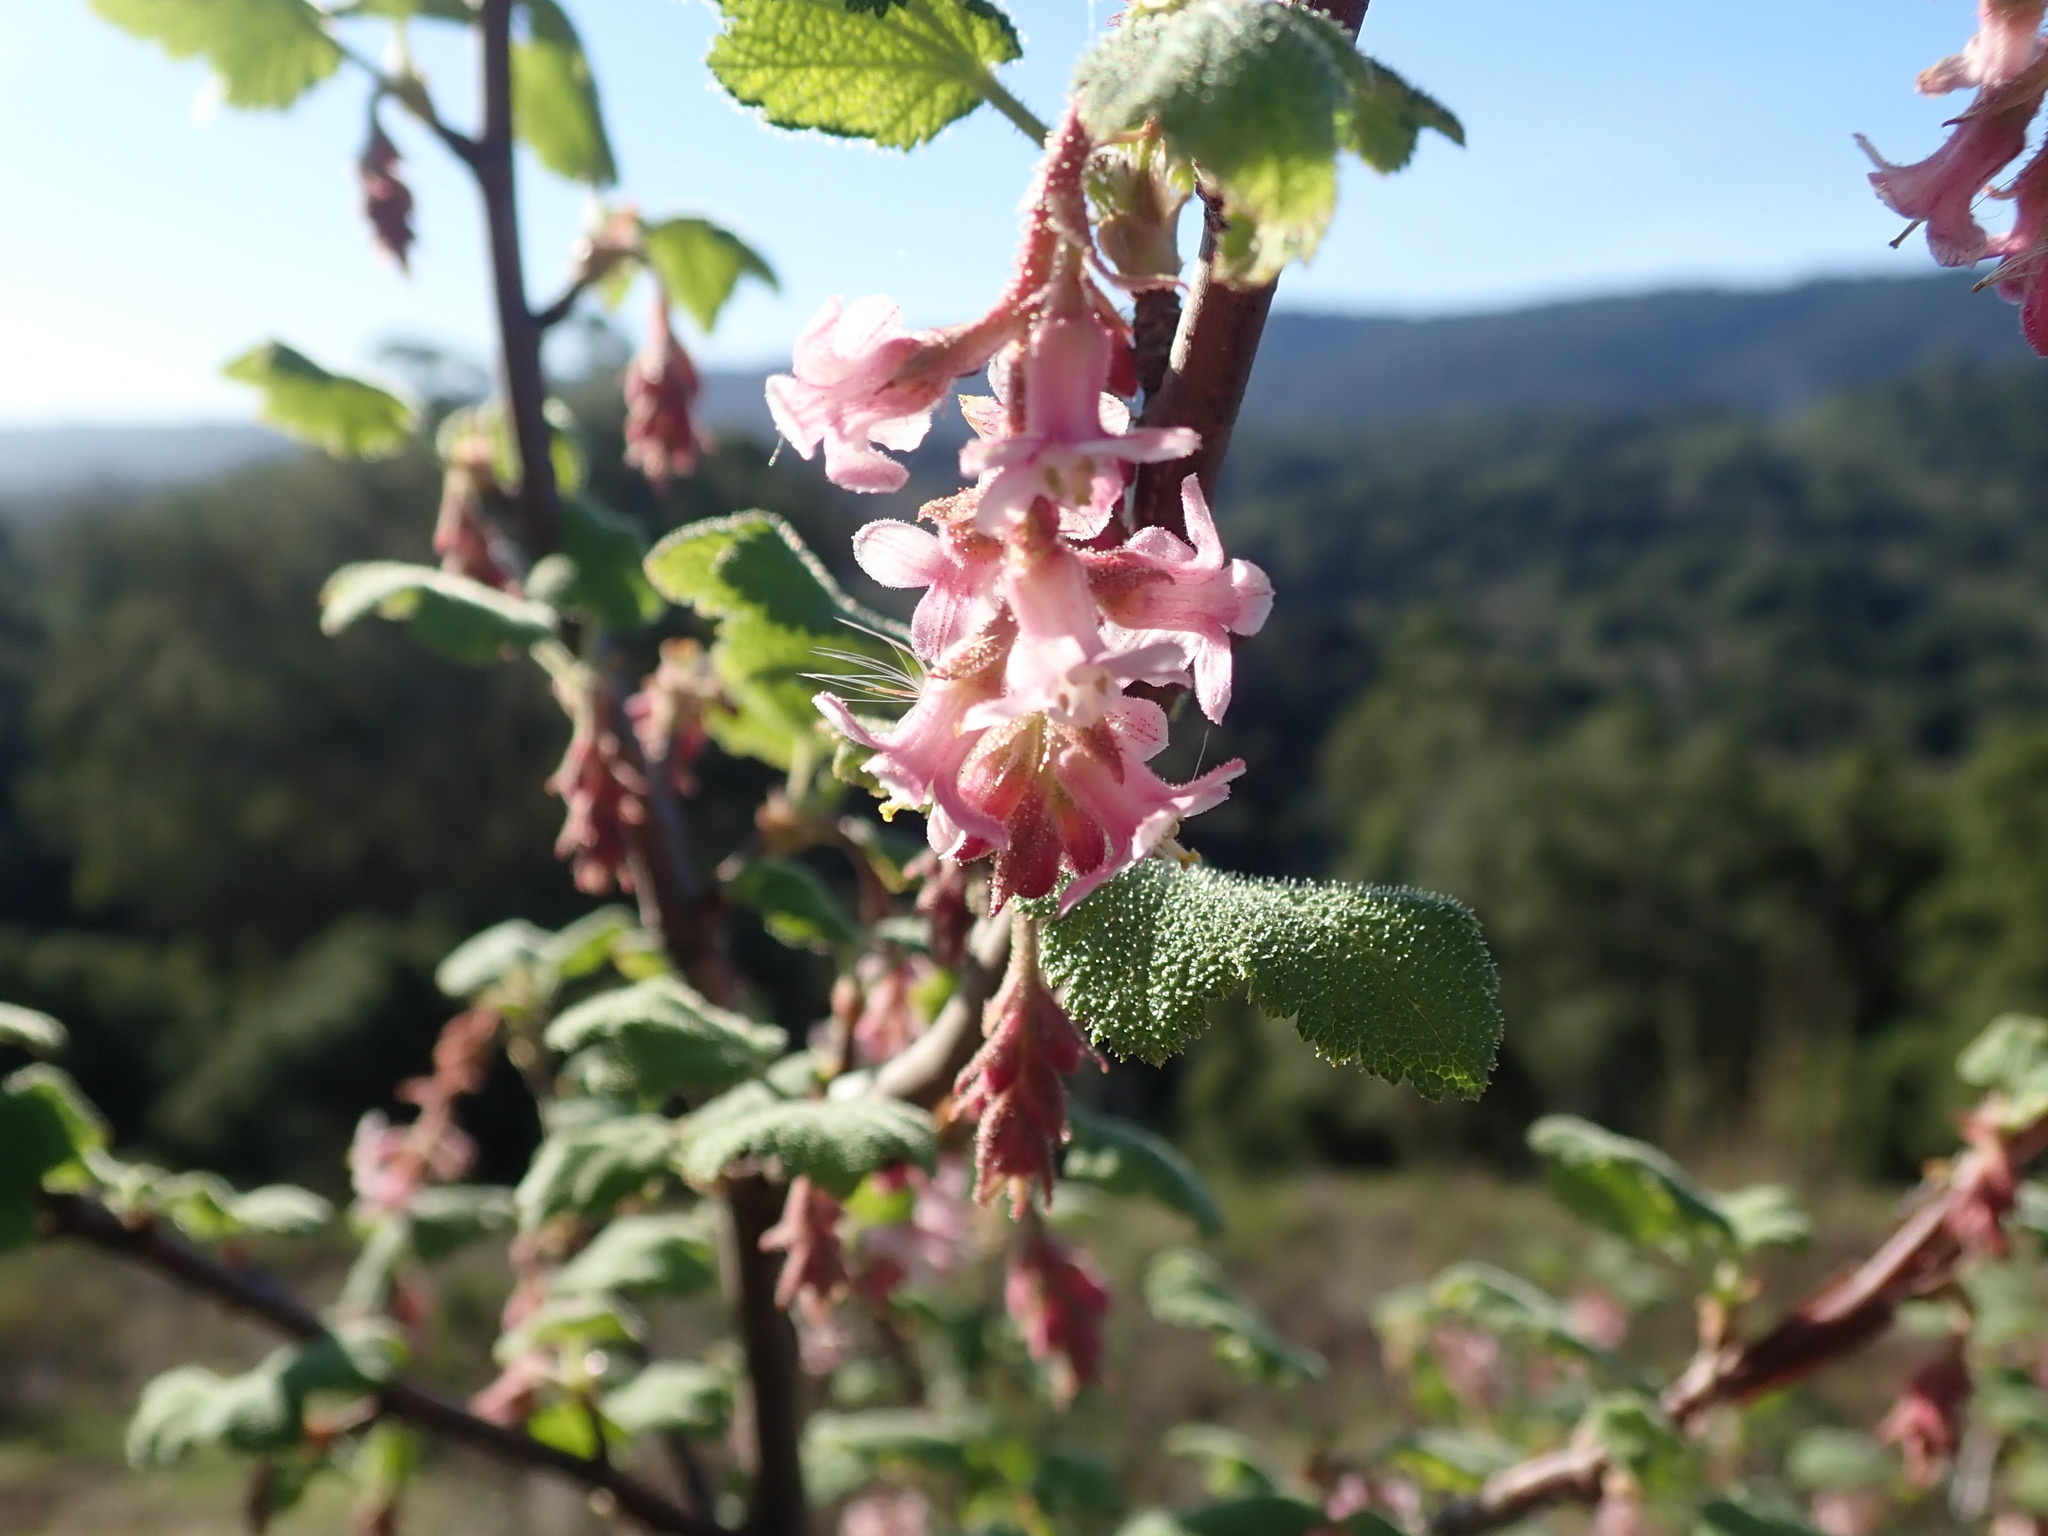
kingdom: Plantae
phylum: Tracheophyta
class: Magnoliopsida
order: Saxifragales
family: Grossulariaceae
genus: Ribes
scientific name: Ribes malvaceum
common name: Chaparral currant
